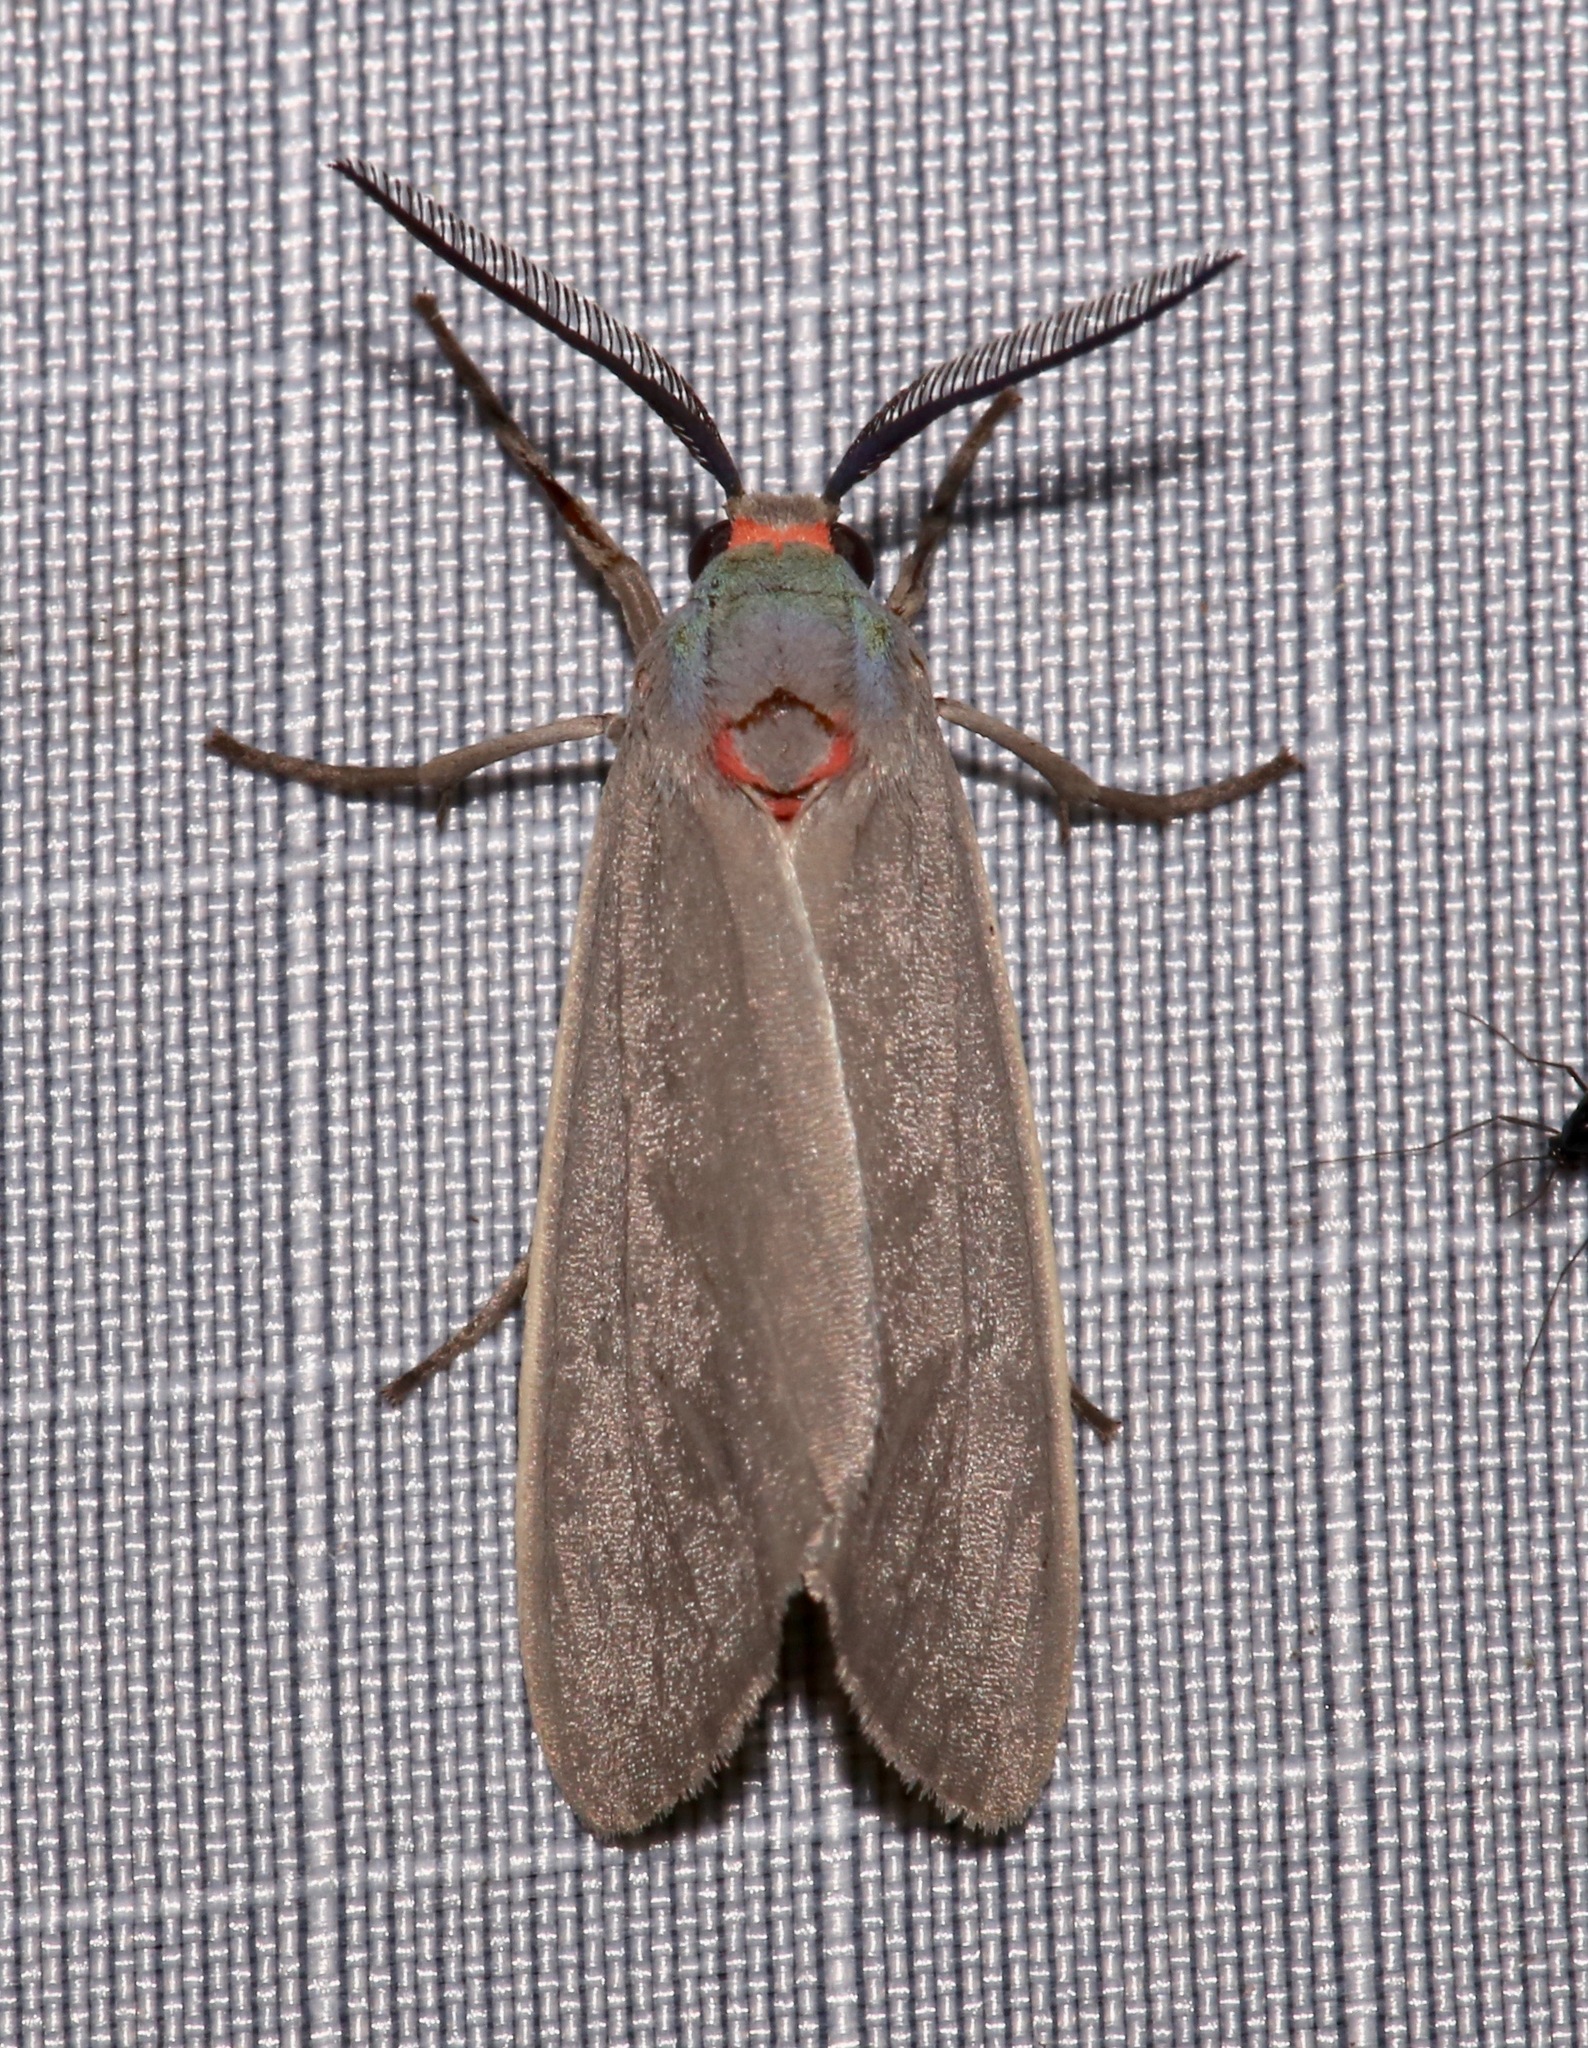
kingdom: Animalia
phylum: Arthropoda
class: Insecta
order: Lepidoptera
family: Erebidae
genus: Pygarctia
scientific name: Pygarctia murina
